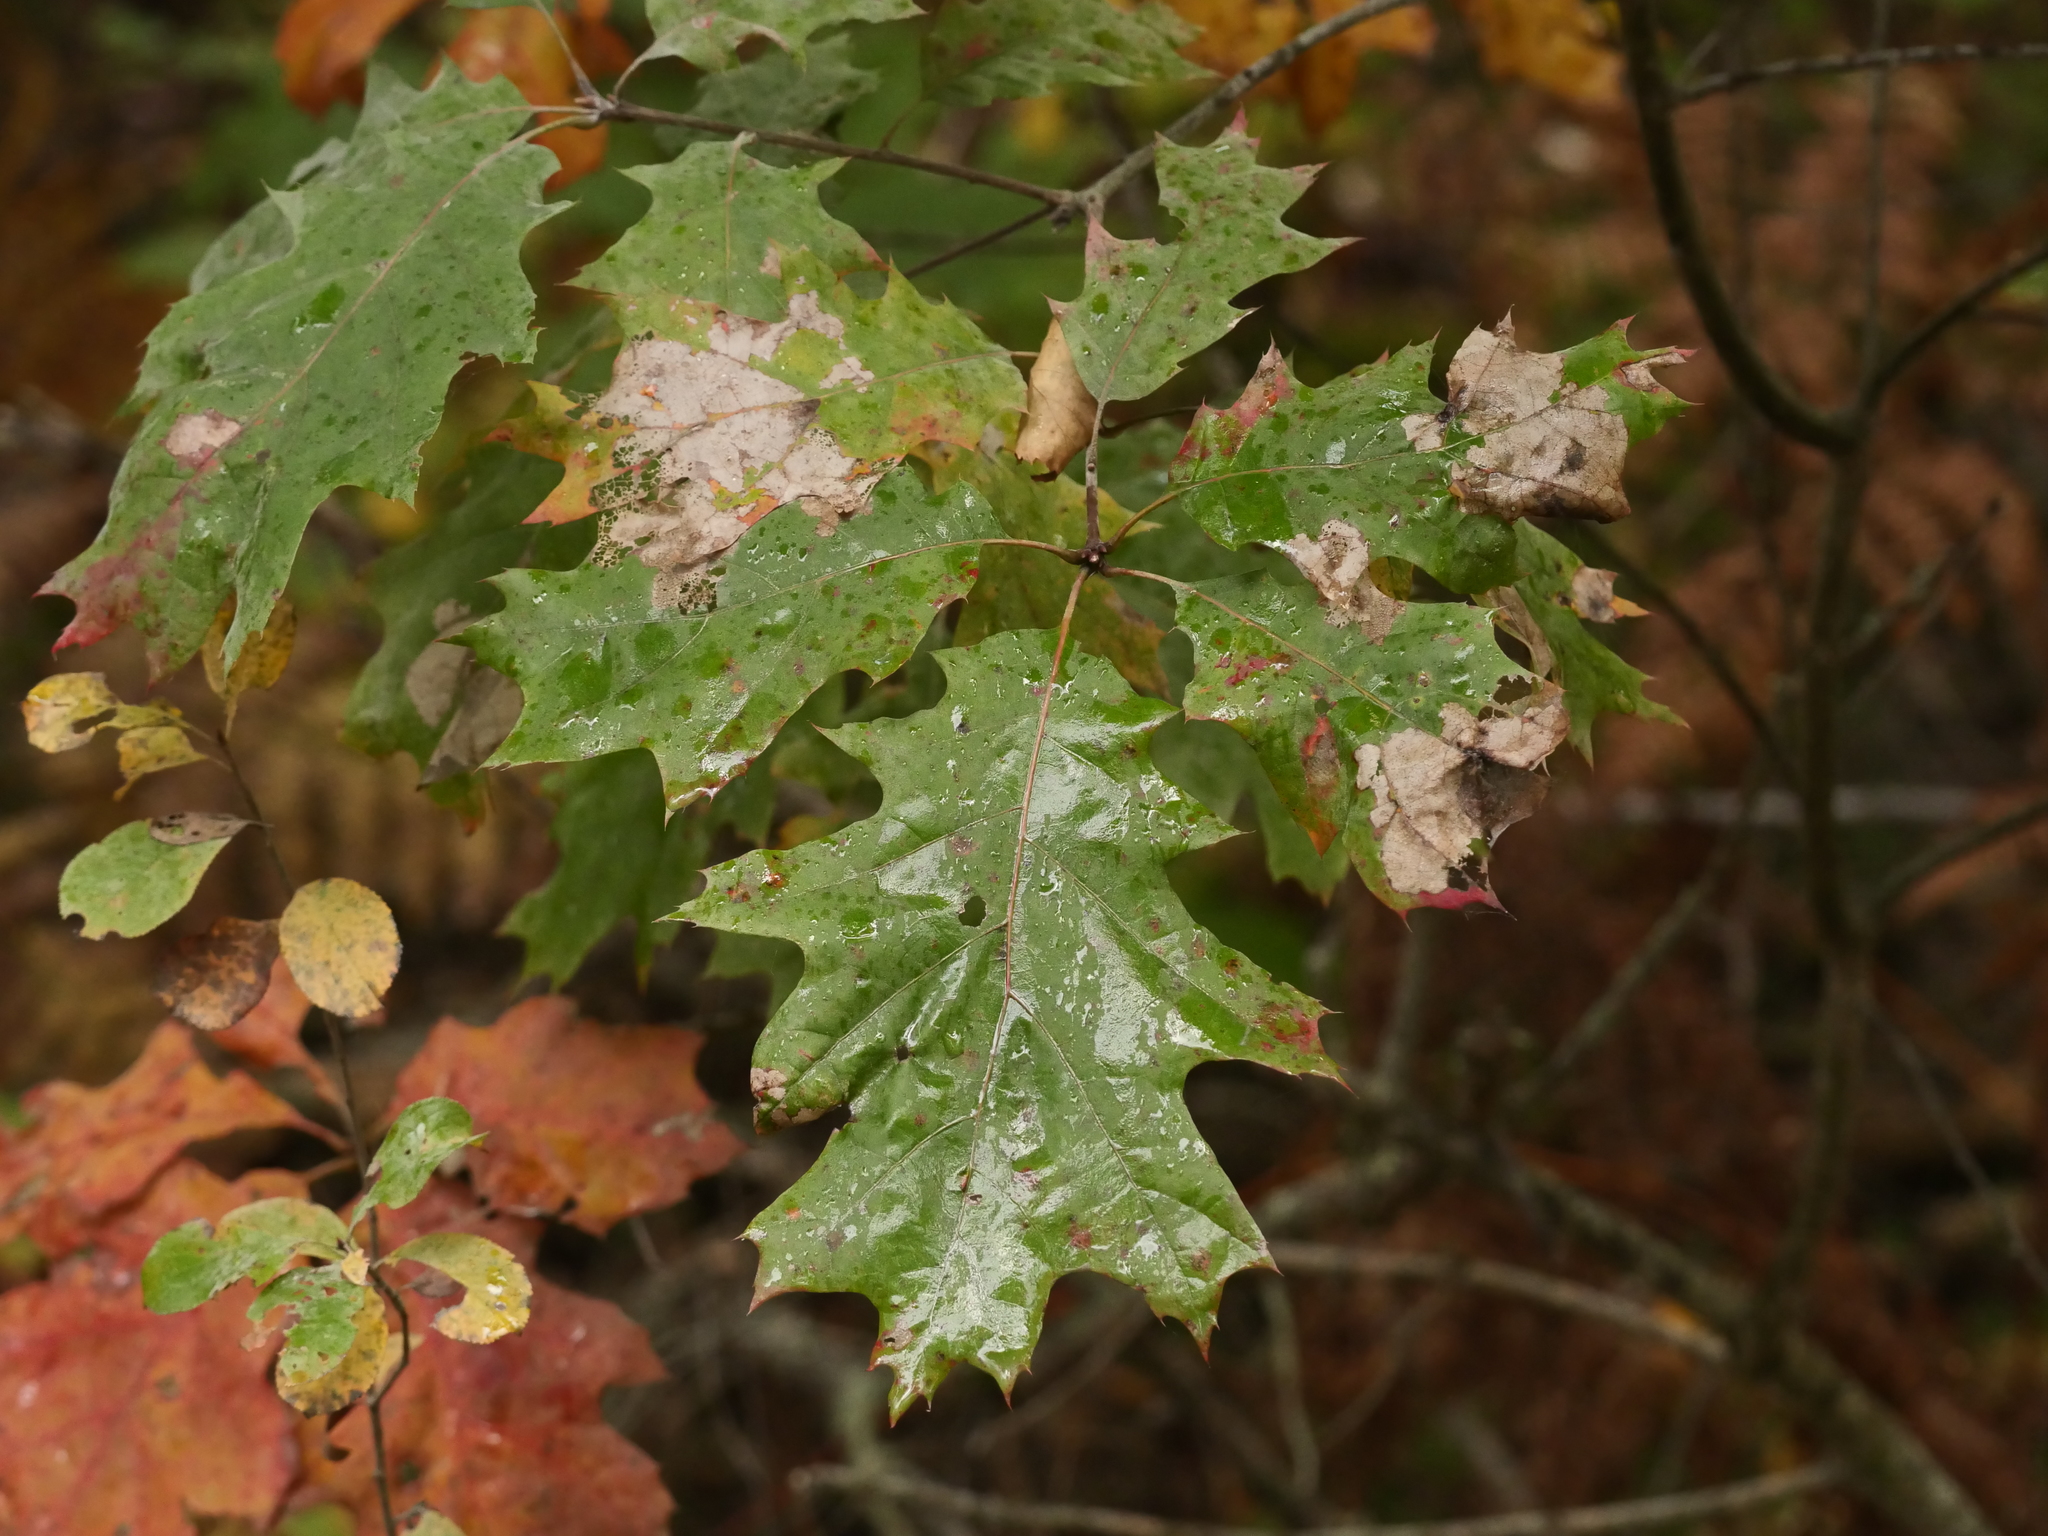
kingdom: Plantae
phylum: Tracheophyta
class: Magnoliopsida
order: Fagales
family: Fagaceae
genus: Quercus
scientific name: Quercus rubra
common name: Red oak
